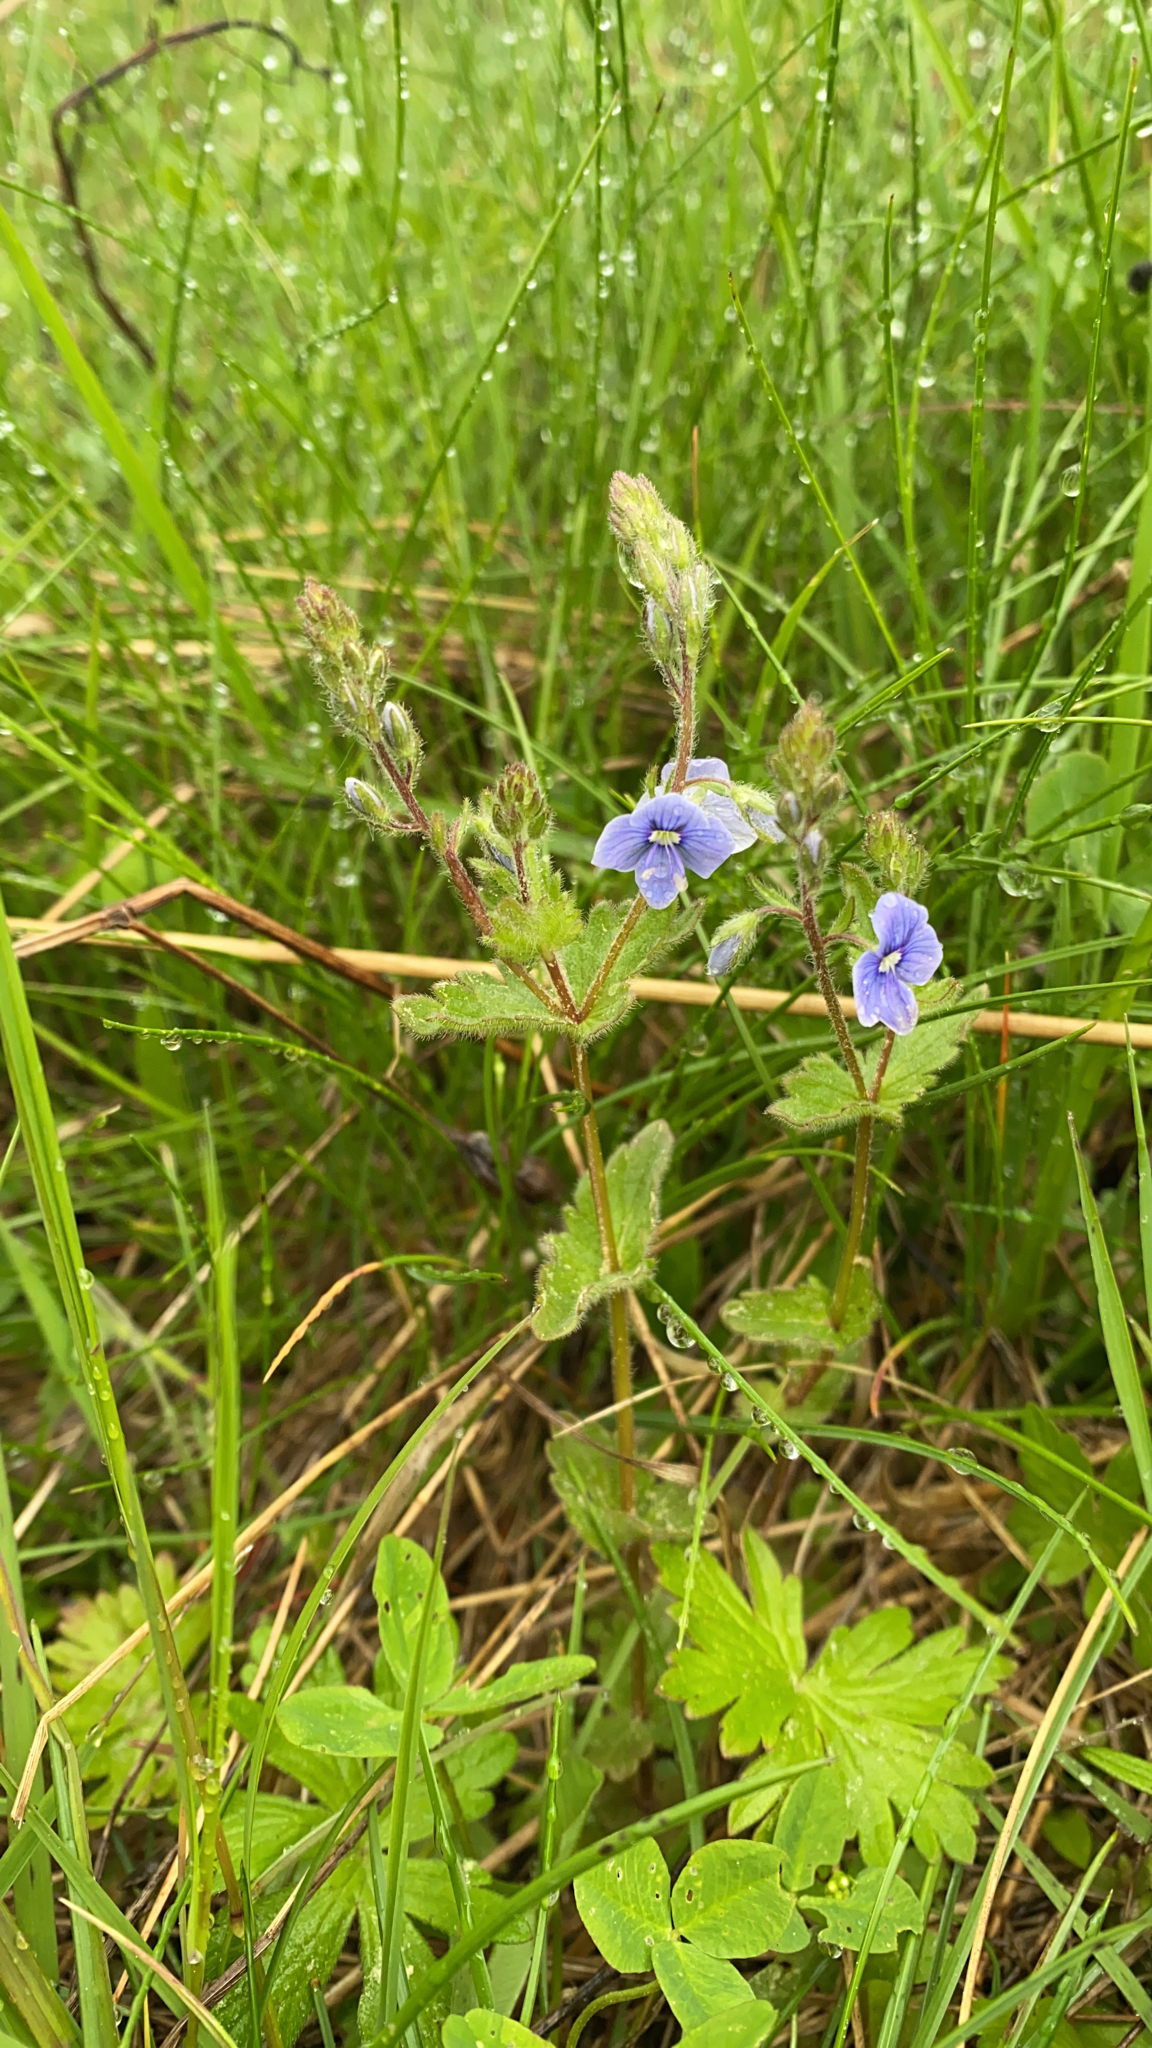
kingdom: Plantae
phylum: Tracheophyta
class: Magnoliopsida
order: Lamiales
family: Plantaginaceae
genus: Veronica
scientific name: Veronica chamaedrys
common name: Germander speedwell
